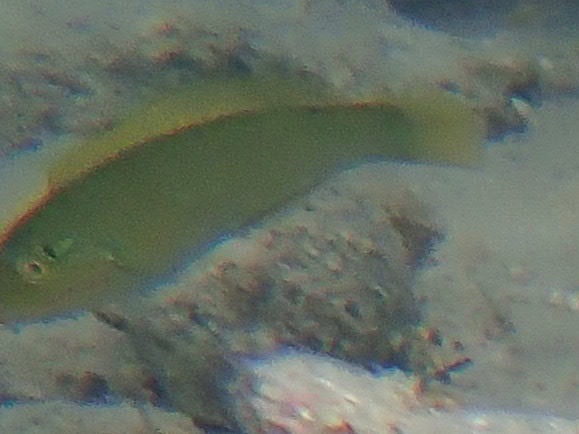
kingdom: Animalia
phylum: Chordata
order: Perciformes
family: Labridae
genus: Halichoeres
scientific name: Halichoeres poeyi
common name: Blackear wrasse
